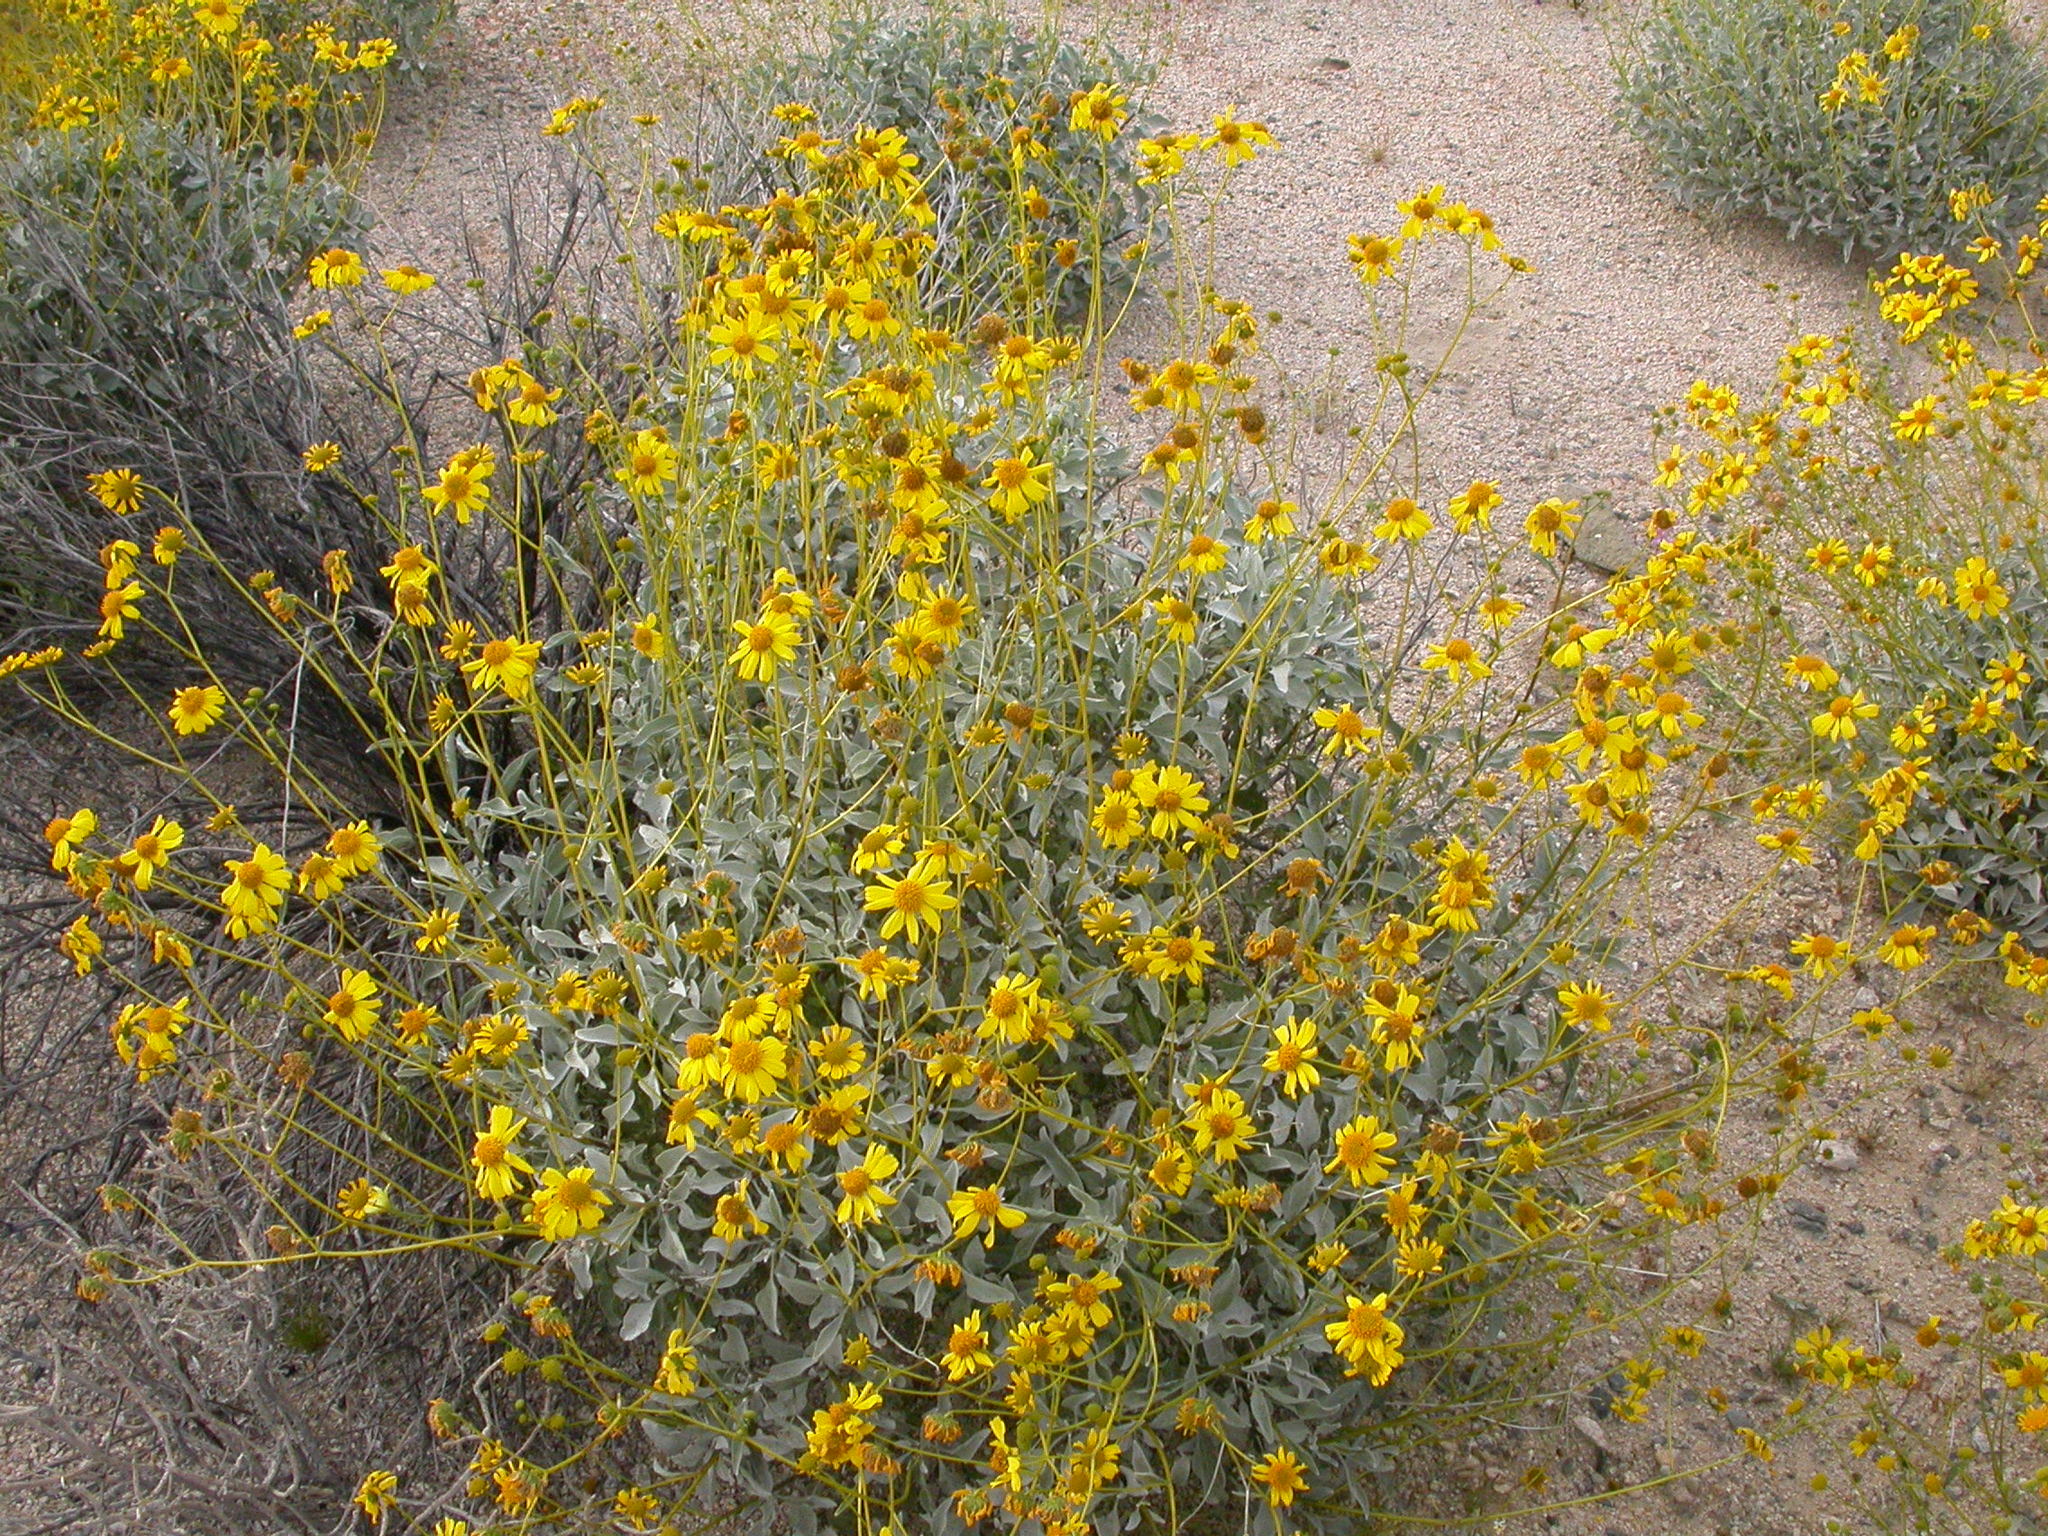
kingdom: Plantae
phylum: Tracheophyta
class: Magnoliopsida
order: Asterales
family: Asteraceae
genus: Encelia
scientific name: Encelia farinosa
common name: Brittlebush
